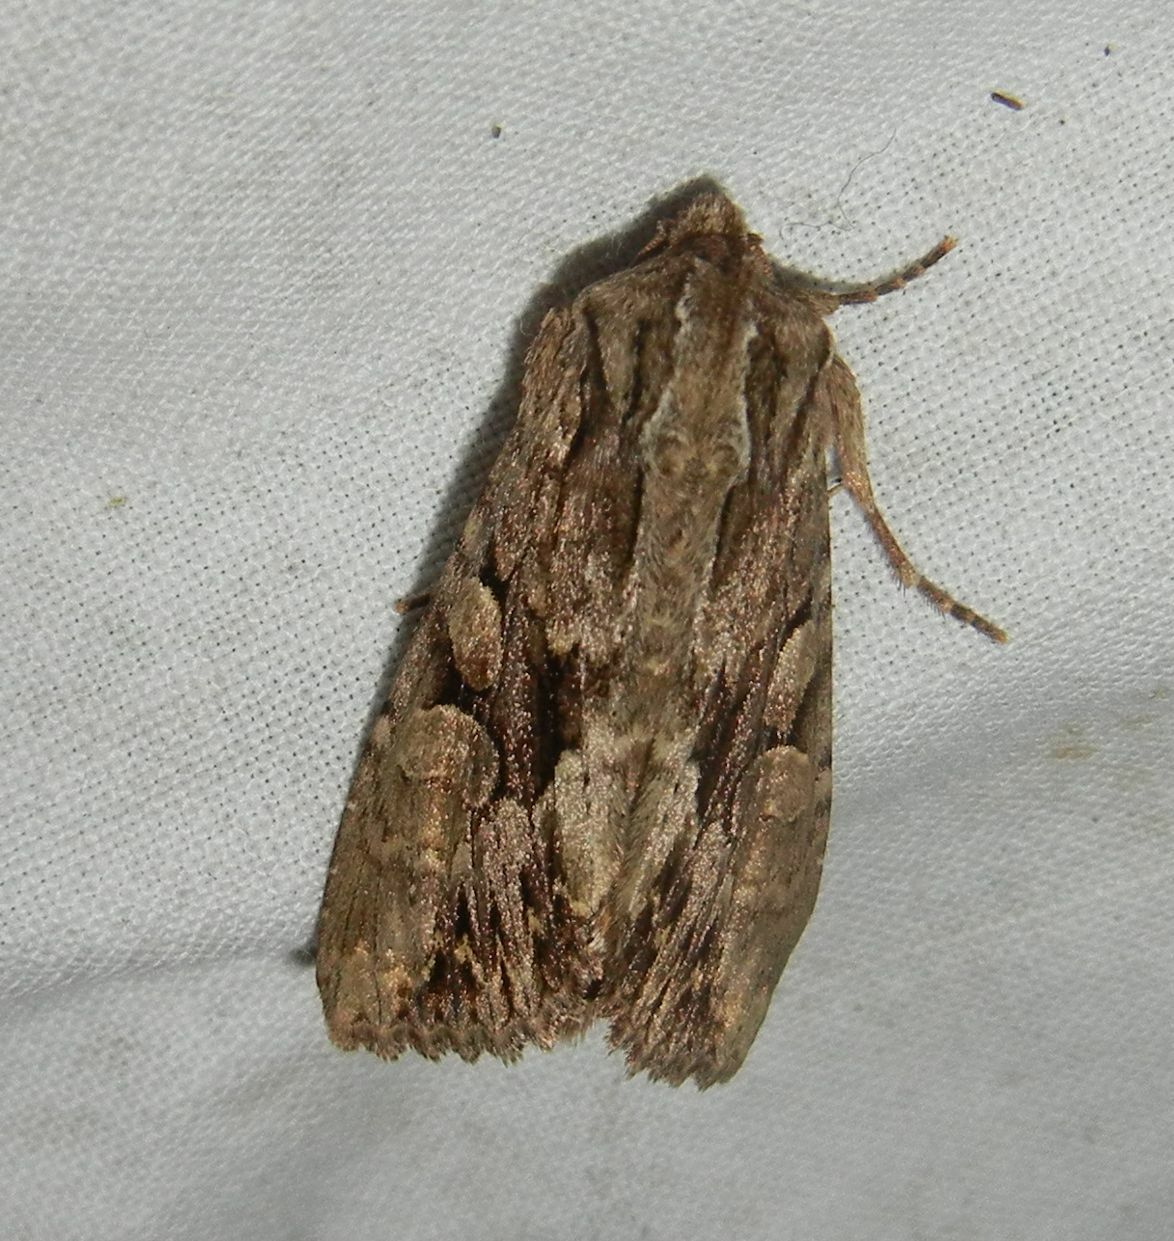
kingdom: Animalia
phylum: Arthropoda
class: Insecta
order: Lepidoptera
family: Noctuidae
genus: Apamea
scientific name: Apamea monoglypha
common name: Dark arches
